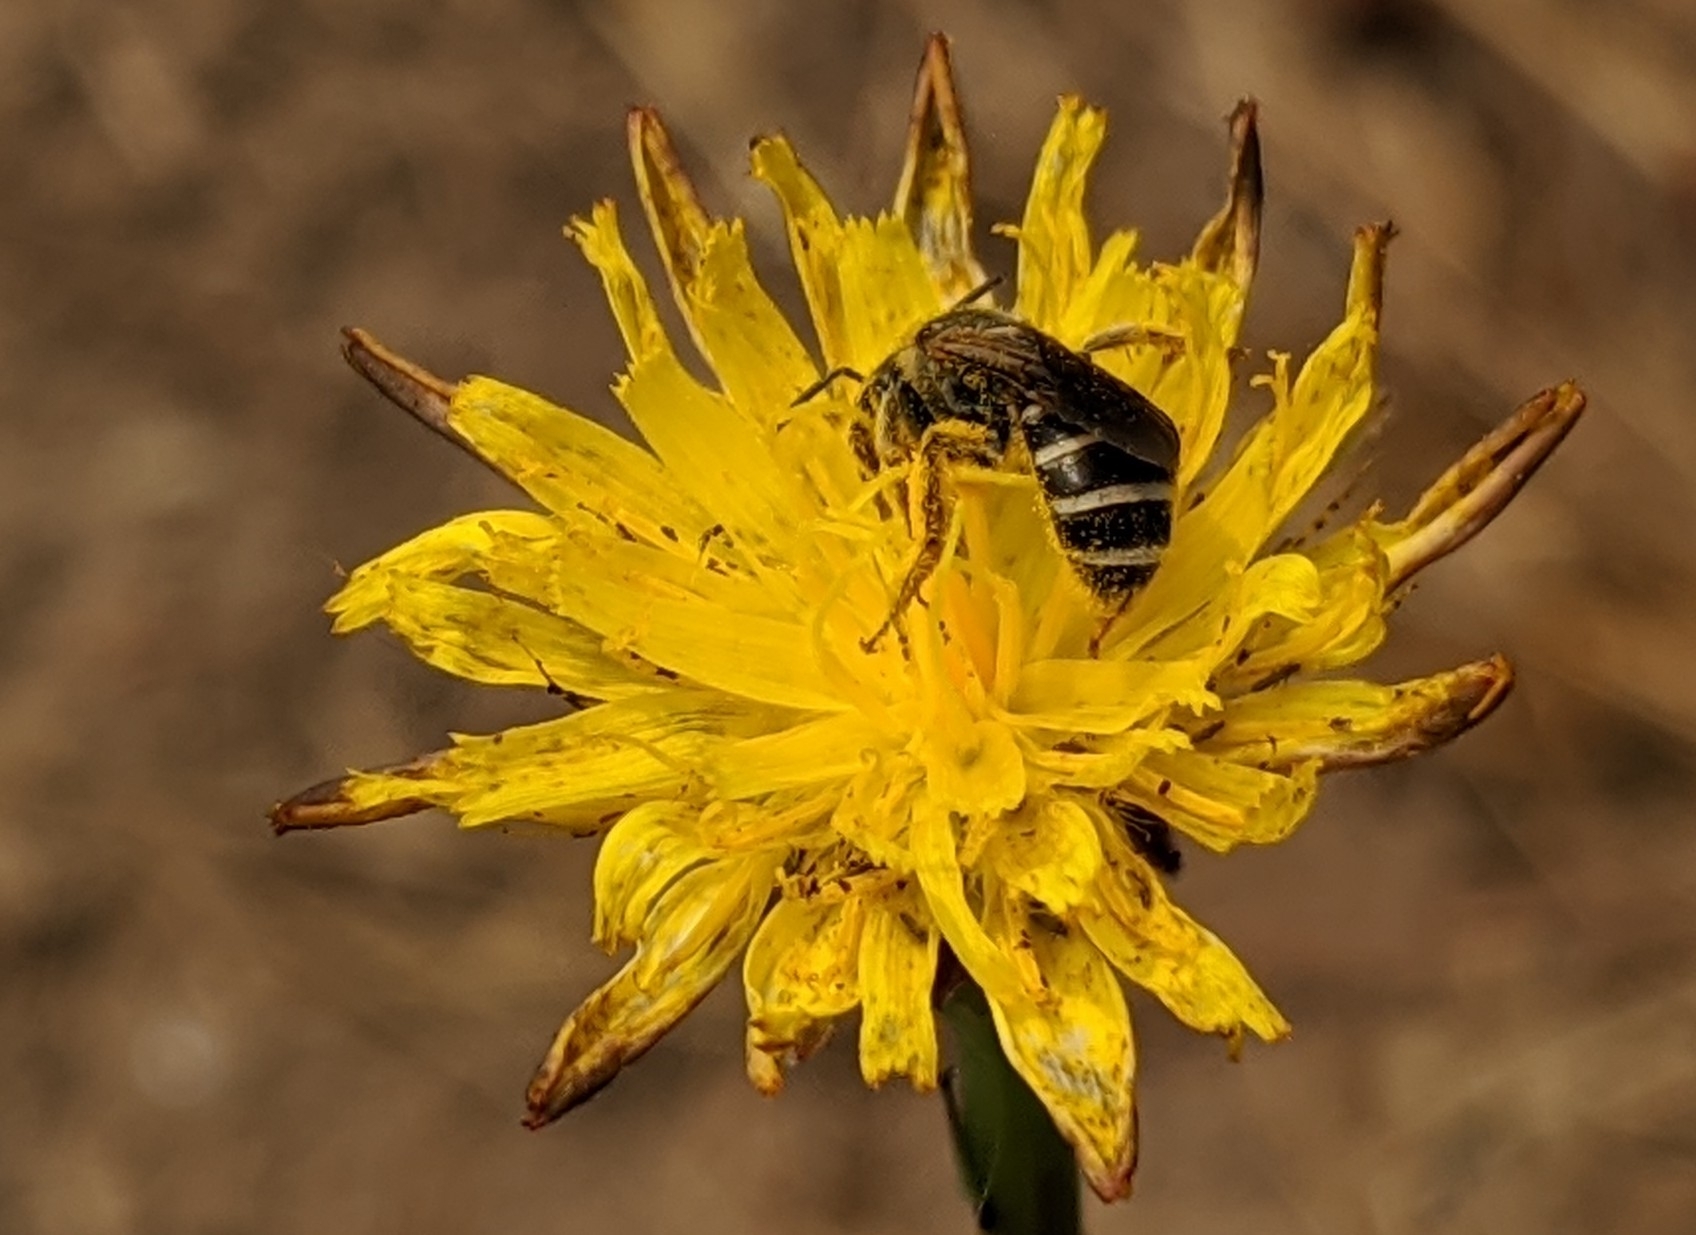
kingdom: Animalia
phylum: Arthropoda
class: Insecta
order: Hymenoptera
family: Halictidae
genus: Halictus
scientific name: Halictus ligatus
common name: Ligated furrow bee
